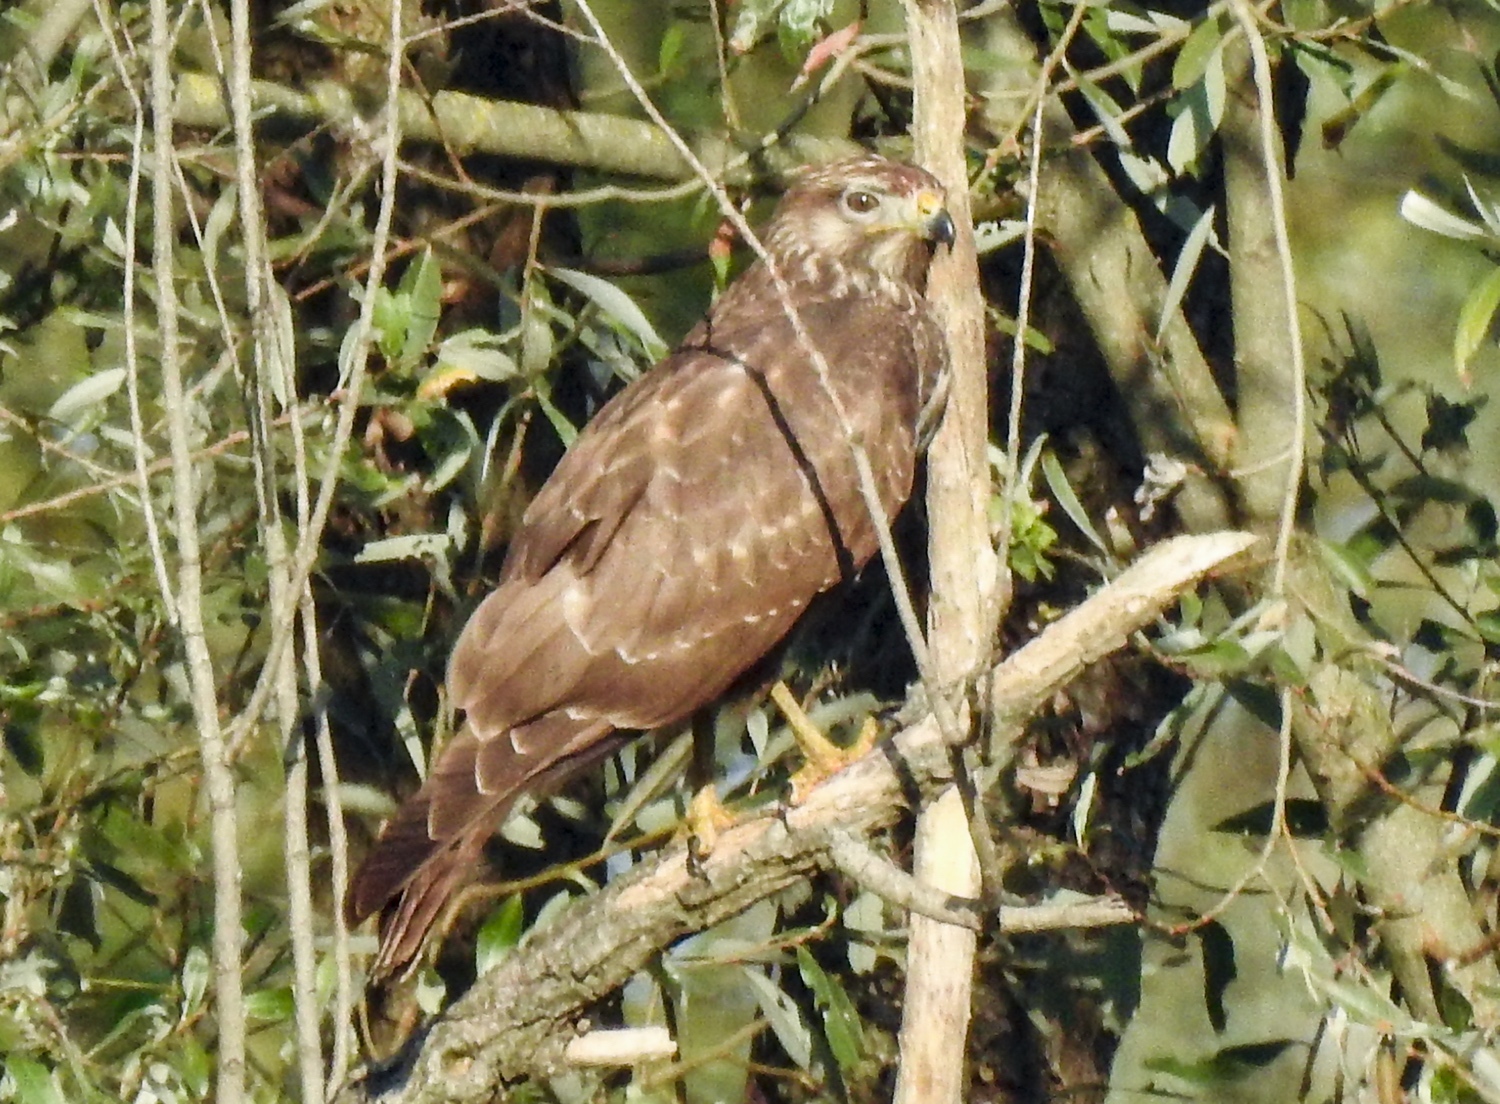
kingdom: Animalia
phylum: Chordata
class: Aves
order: Accipitriformes
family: Accipitridae
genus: Buteo
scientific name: Buteo buteo
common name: Common buzzard
